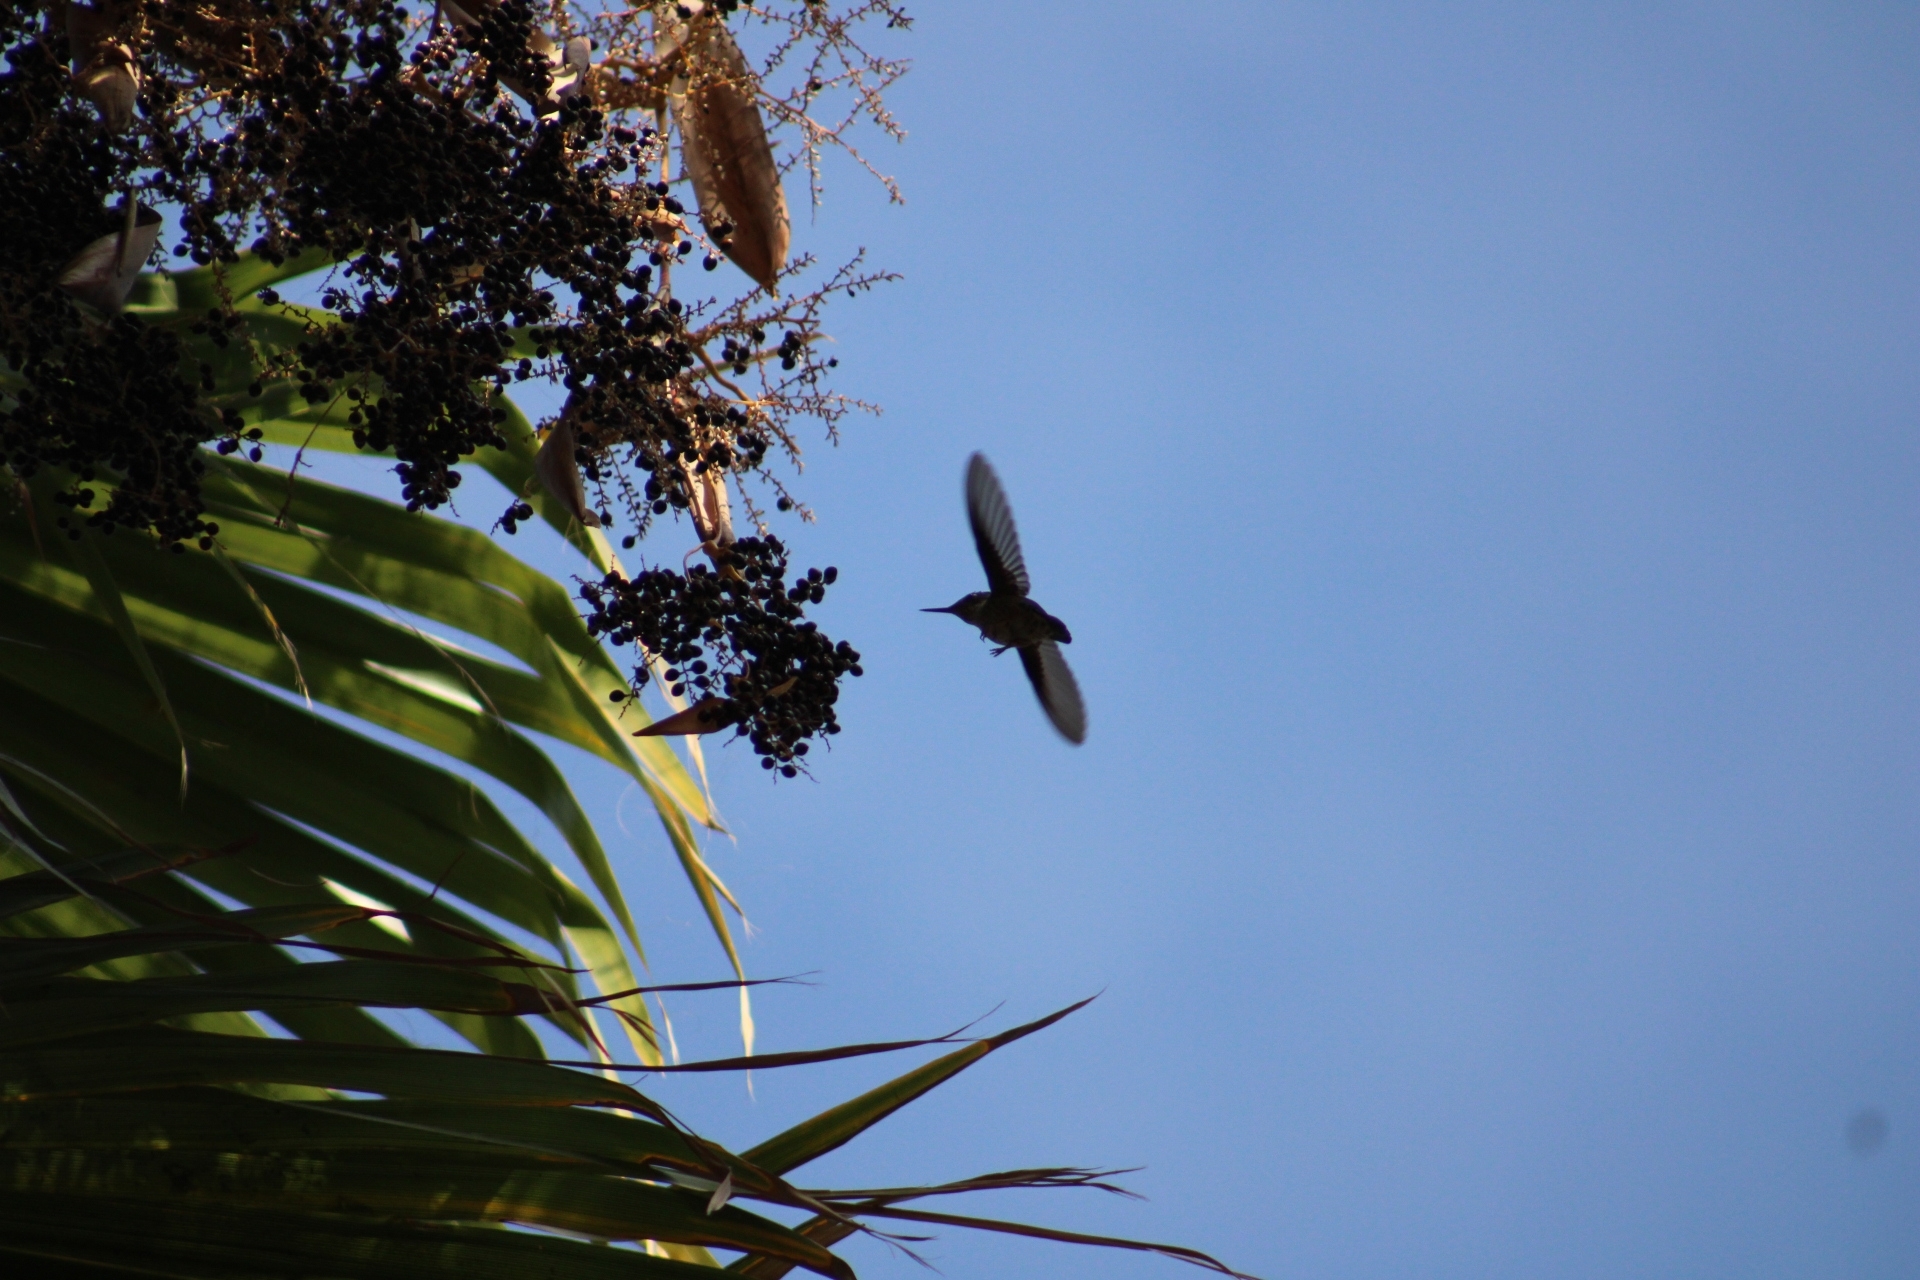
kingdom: Animalia
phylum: Chordata
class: Aves
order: Apodiformes
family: Trochilidae
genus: Sephanoides
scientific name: Sephanoides sephaniodes
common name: Green-backed firecrown
